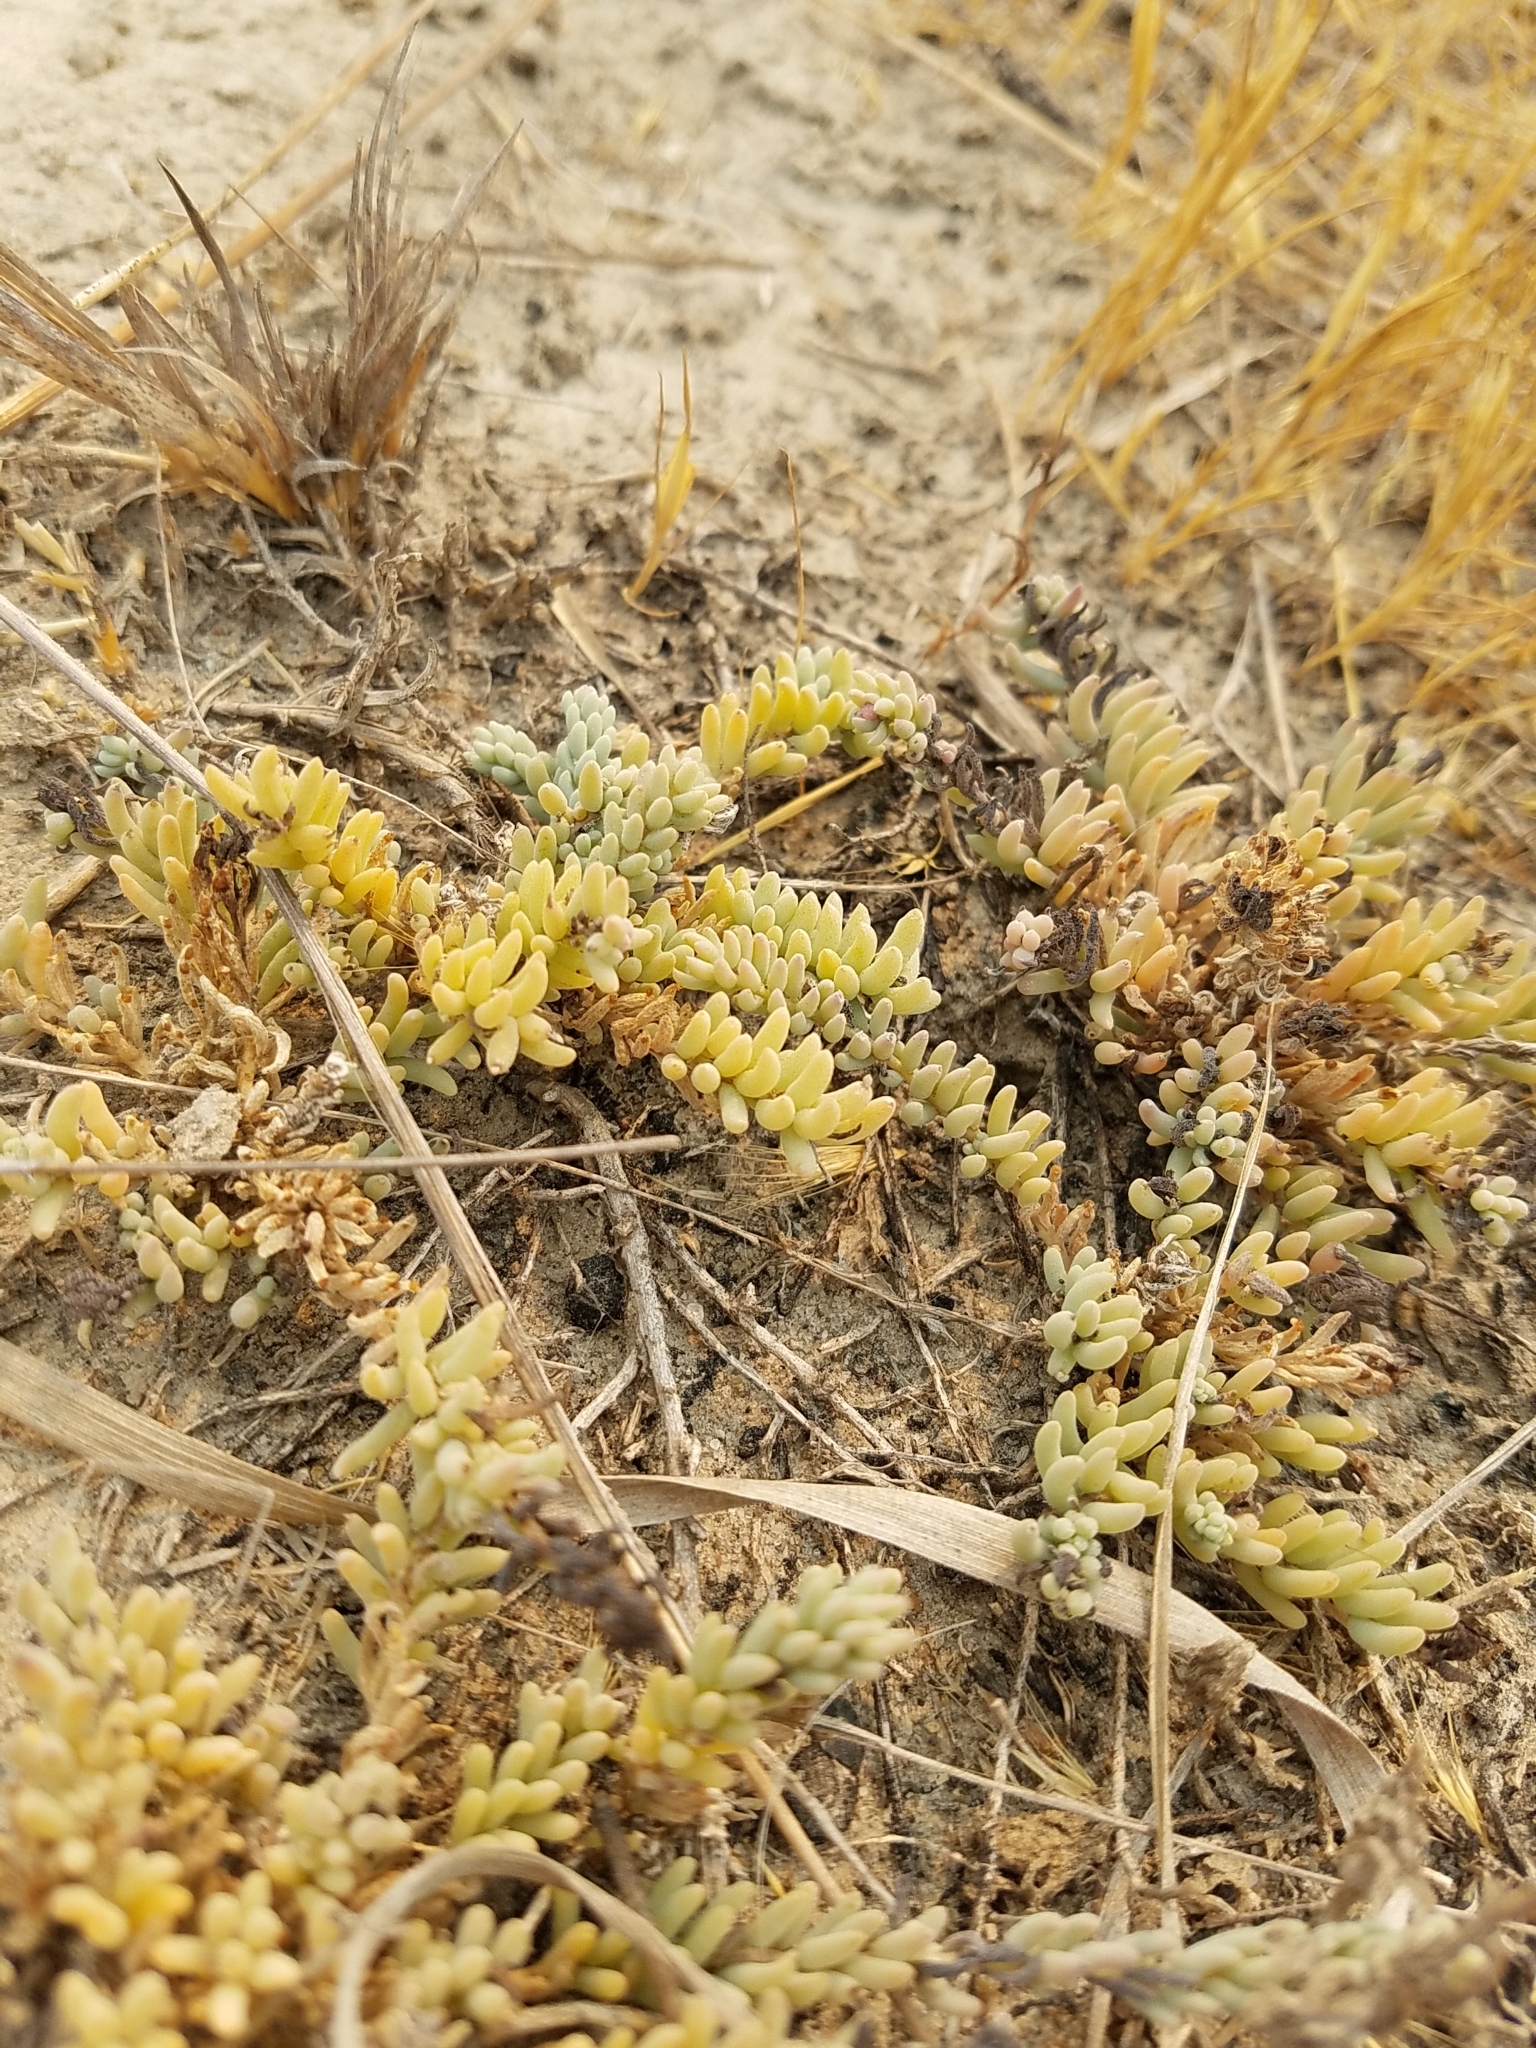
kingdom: Plantae
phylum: Tracheophyta
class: Magnoliopsida
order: Caryophyllales
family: Amaranthaceae
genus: Suaeda
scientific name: Suaeda nigra
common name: Bush seepweed
